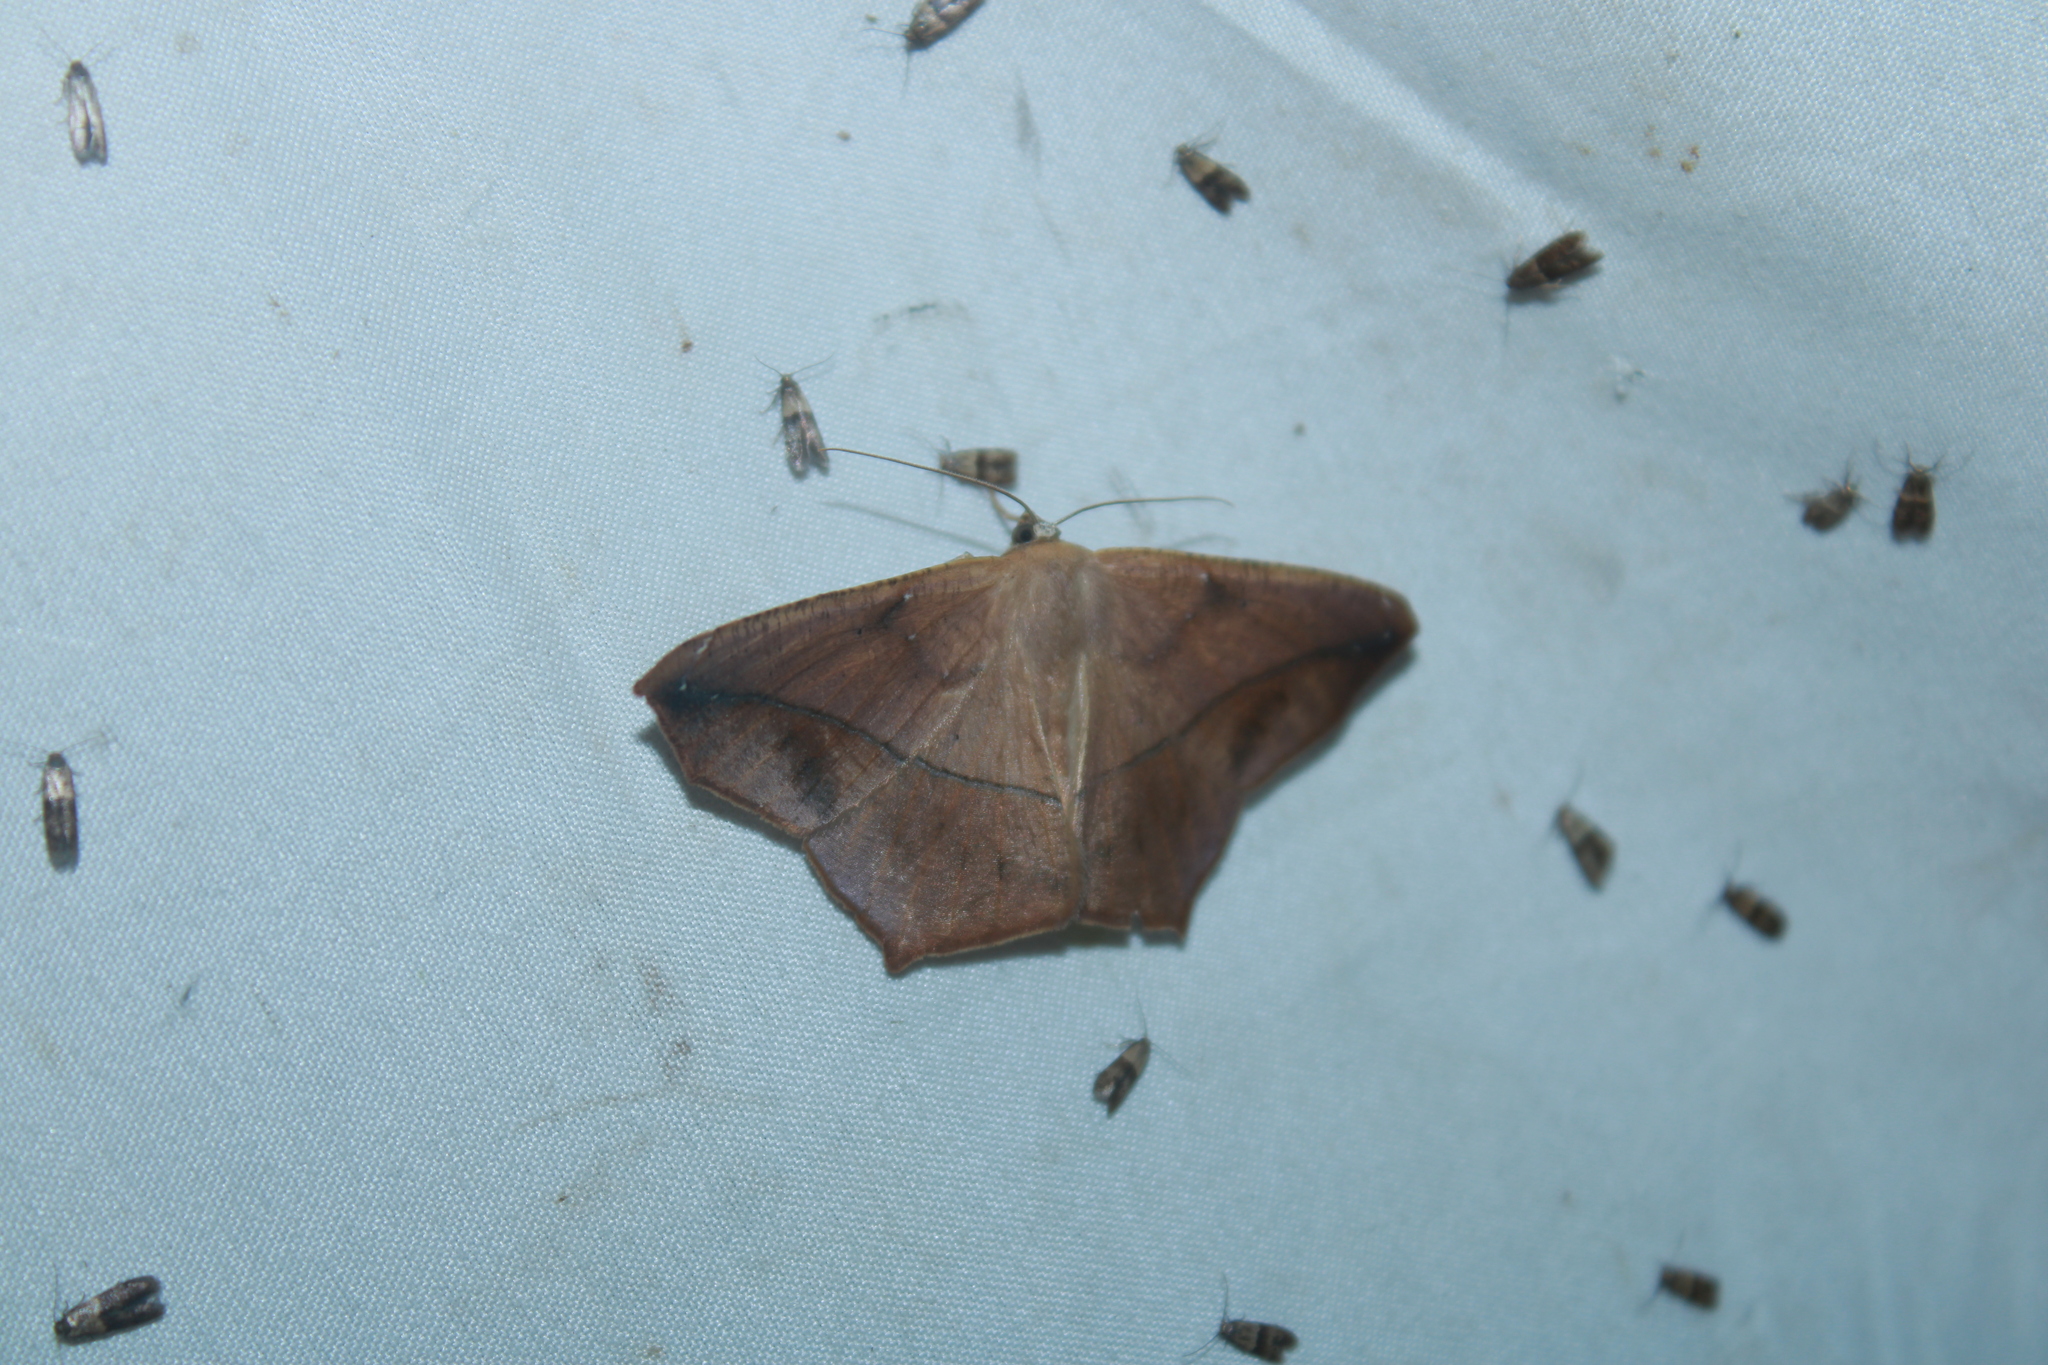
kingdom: Animalia
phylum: Arthropoda
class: Insecta
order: Lepidoptera
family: Geometridae
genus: Prochoerodes
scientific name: Prochoerodes lineola
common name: Large maple spanworm
